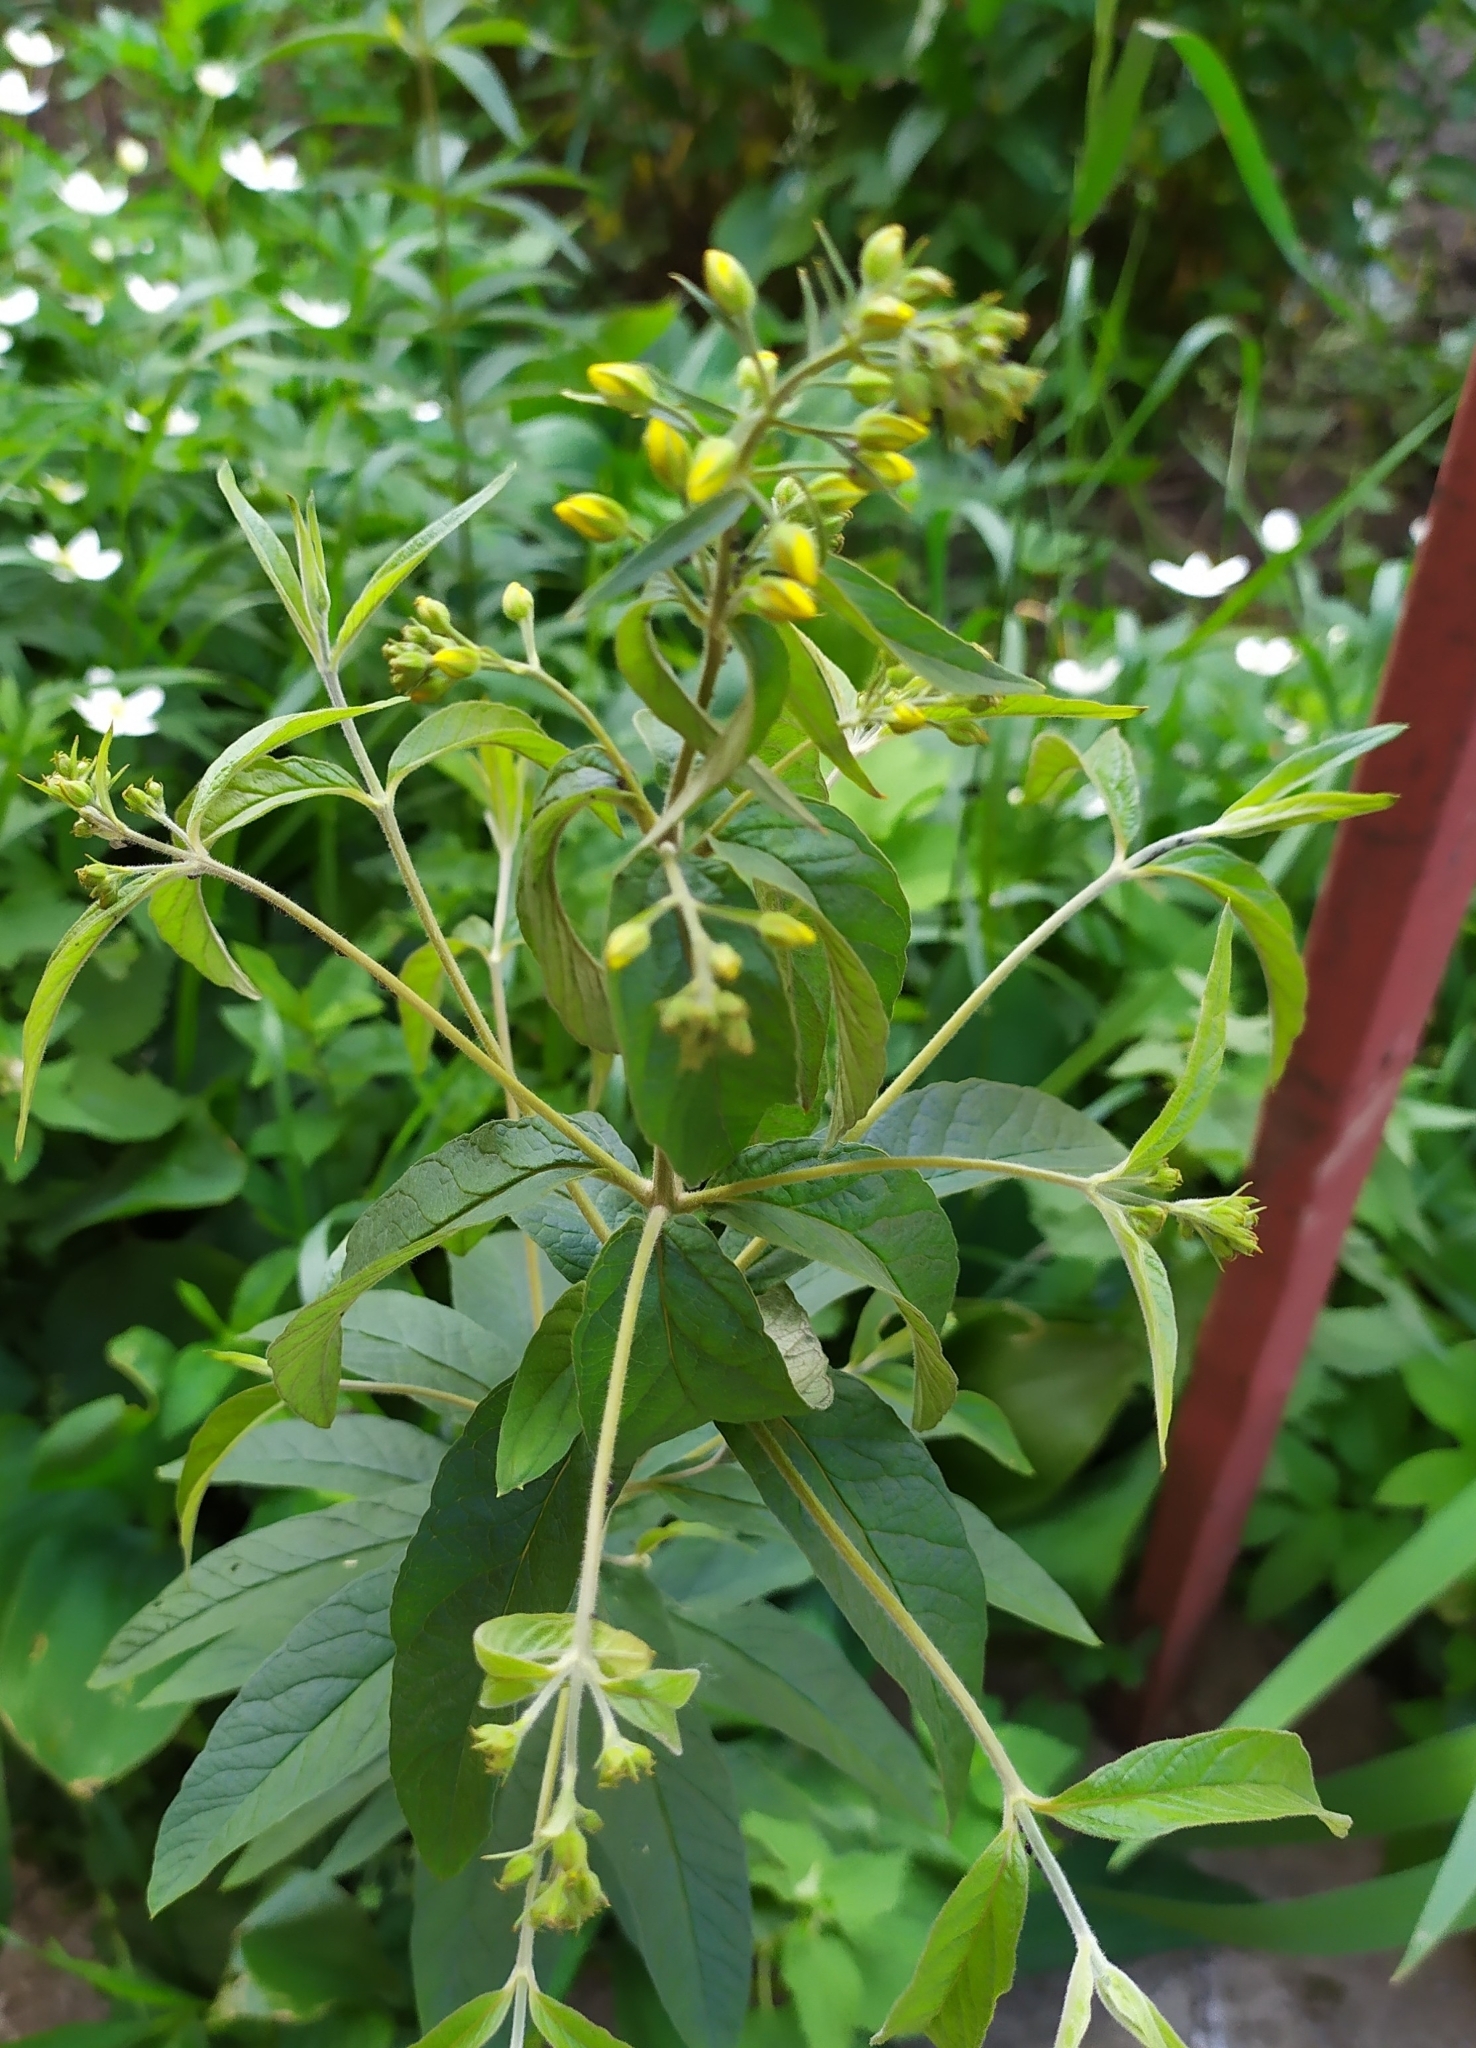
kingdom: Plantae
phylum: Tracheophyta
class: Magnoliopsida
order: Ericales
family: Primulaceae
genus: Lysimachia
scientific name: Lysimachia vulgaris
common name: Yellow loosestrife
